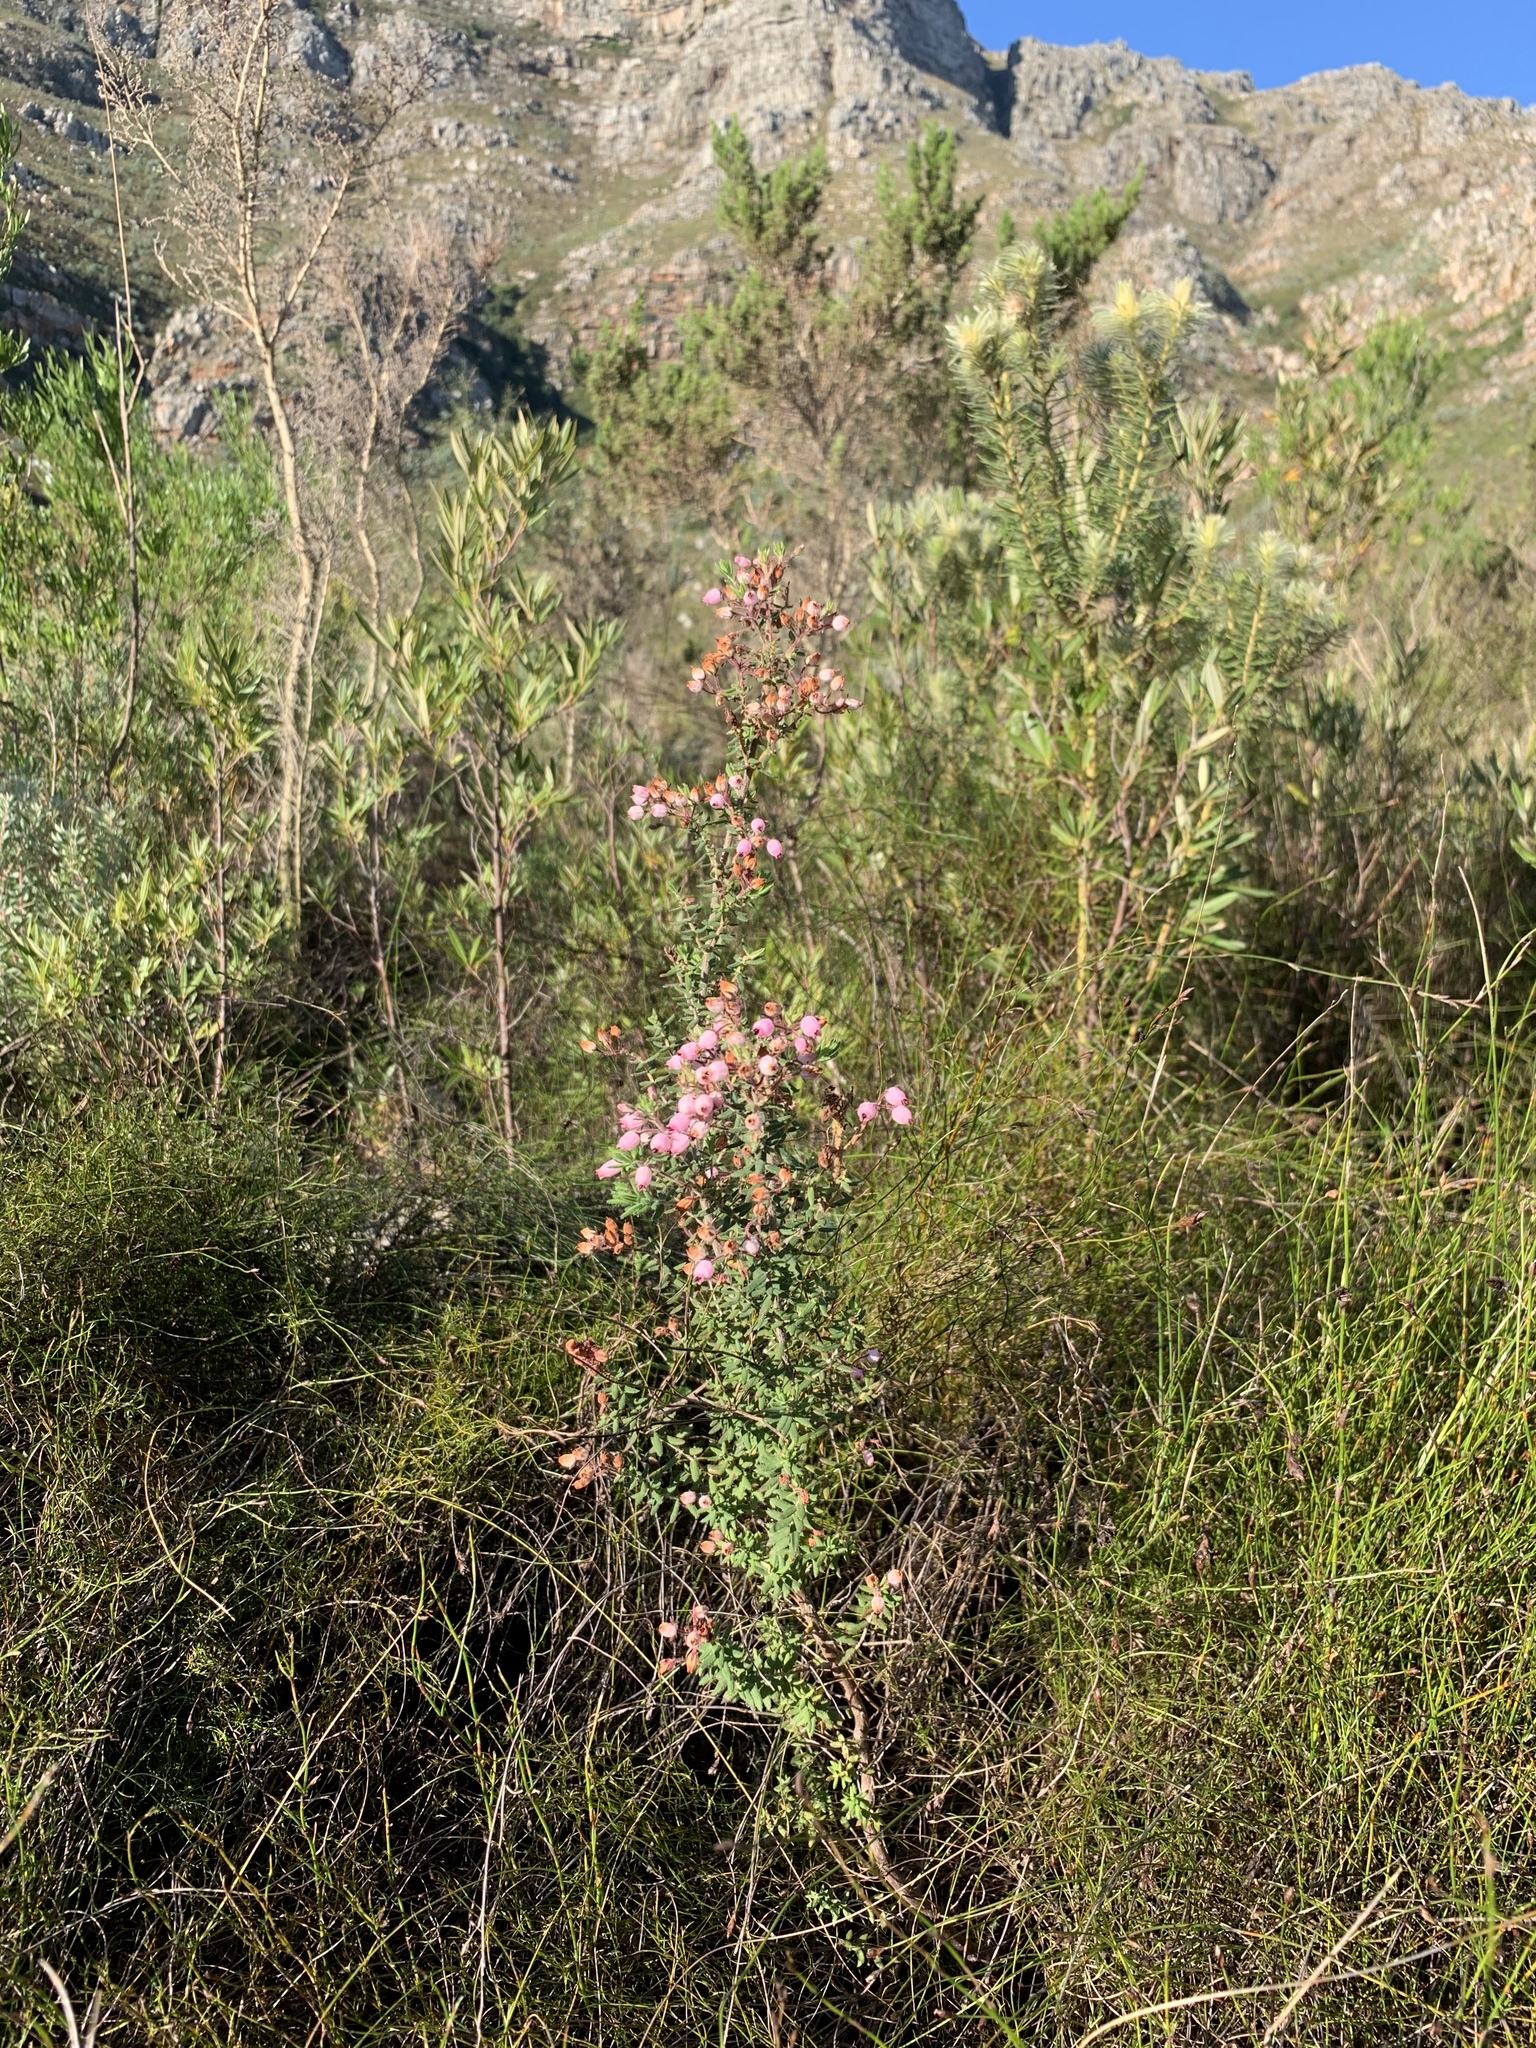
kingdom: Plantae
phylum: Tracheophyta
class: Magnoliopsida
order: Ericales
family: Ericaceae
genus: Erica
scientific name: Erica hirta
